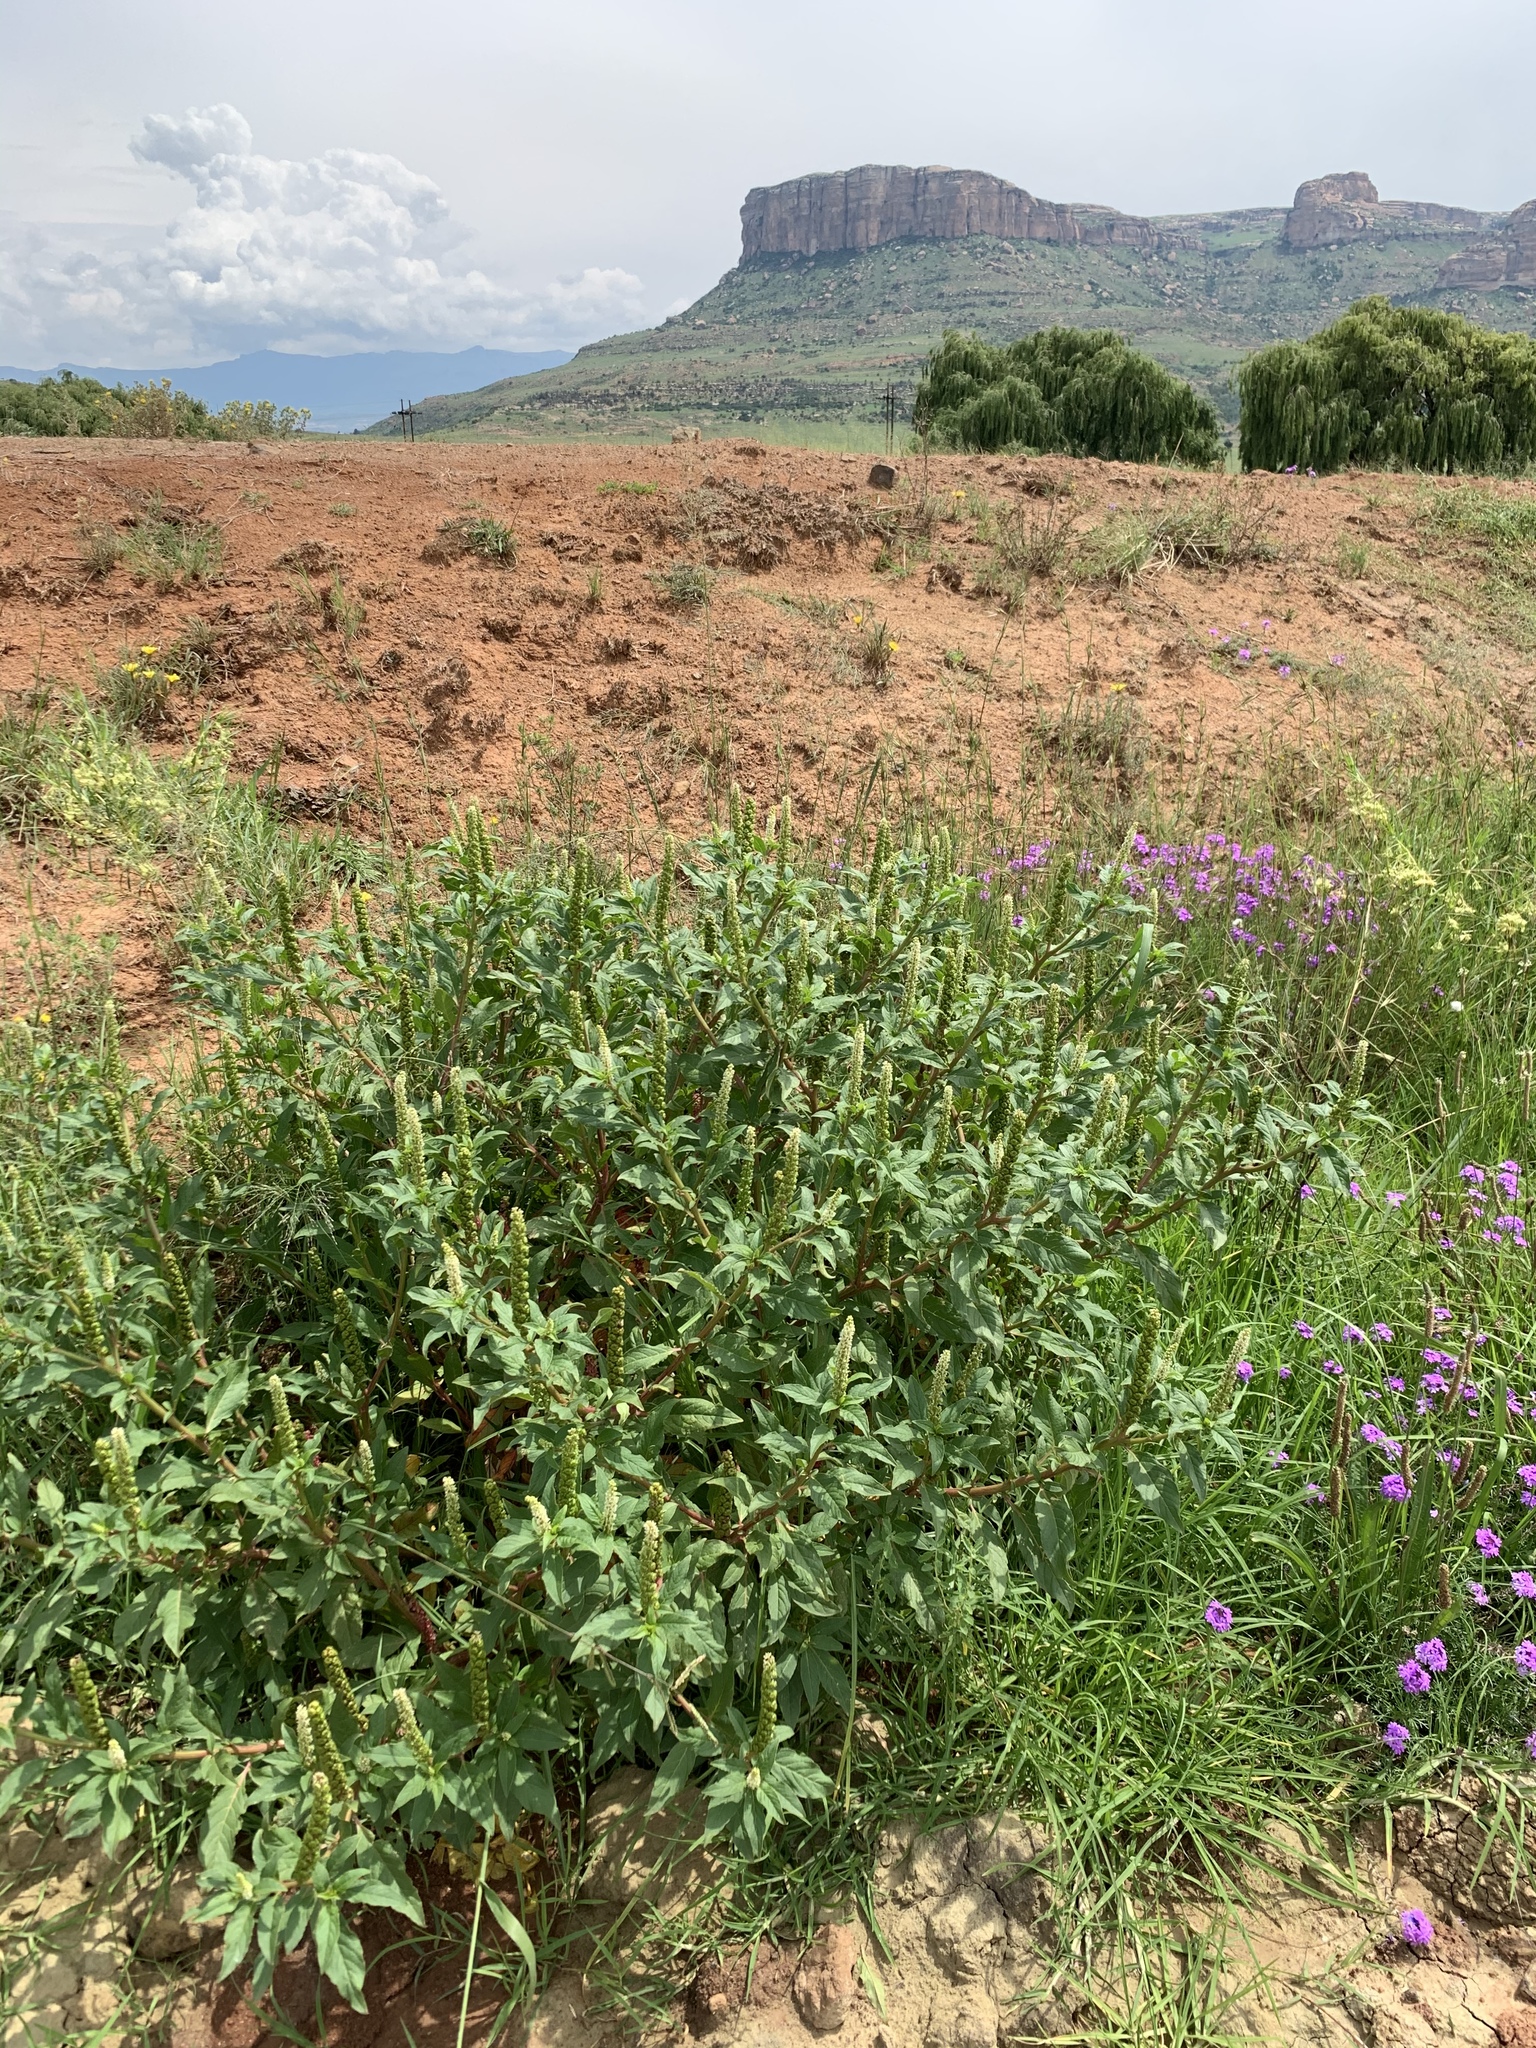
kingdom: Plantae
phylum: Tracheophyta
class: Magnoliopsida
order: Caryophyllales
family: Phytolaccaceae
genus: Phytolacca
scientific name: Phytolacca icosandra
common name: Button pokeweed
